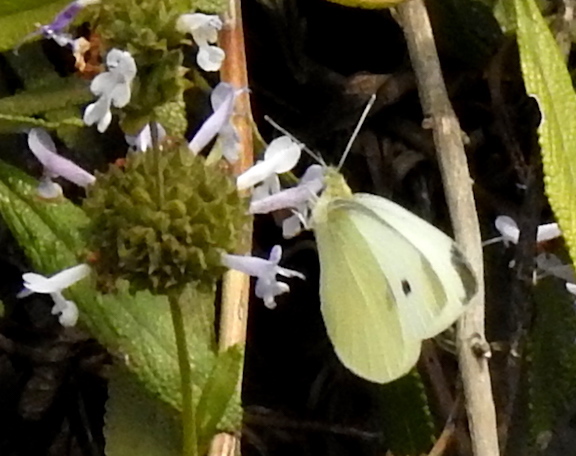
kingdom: Animalia
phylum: Arthropoda
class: Insecta
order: Lepidoptera
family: Pieridae
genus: Pieris
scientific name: Pieris rapae
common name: Small white
